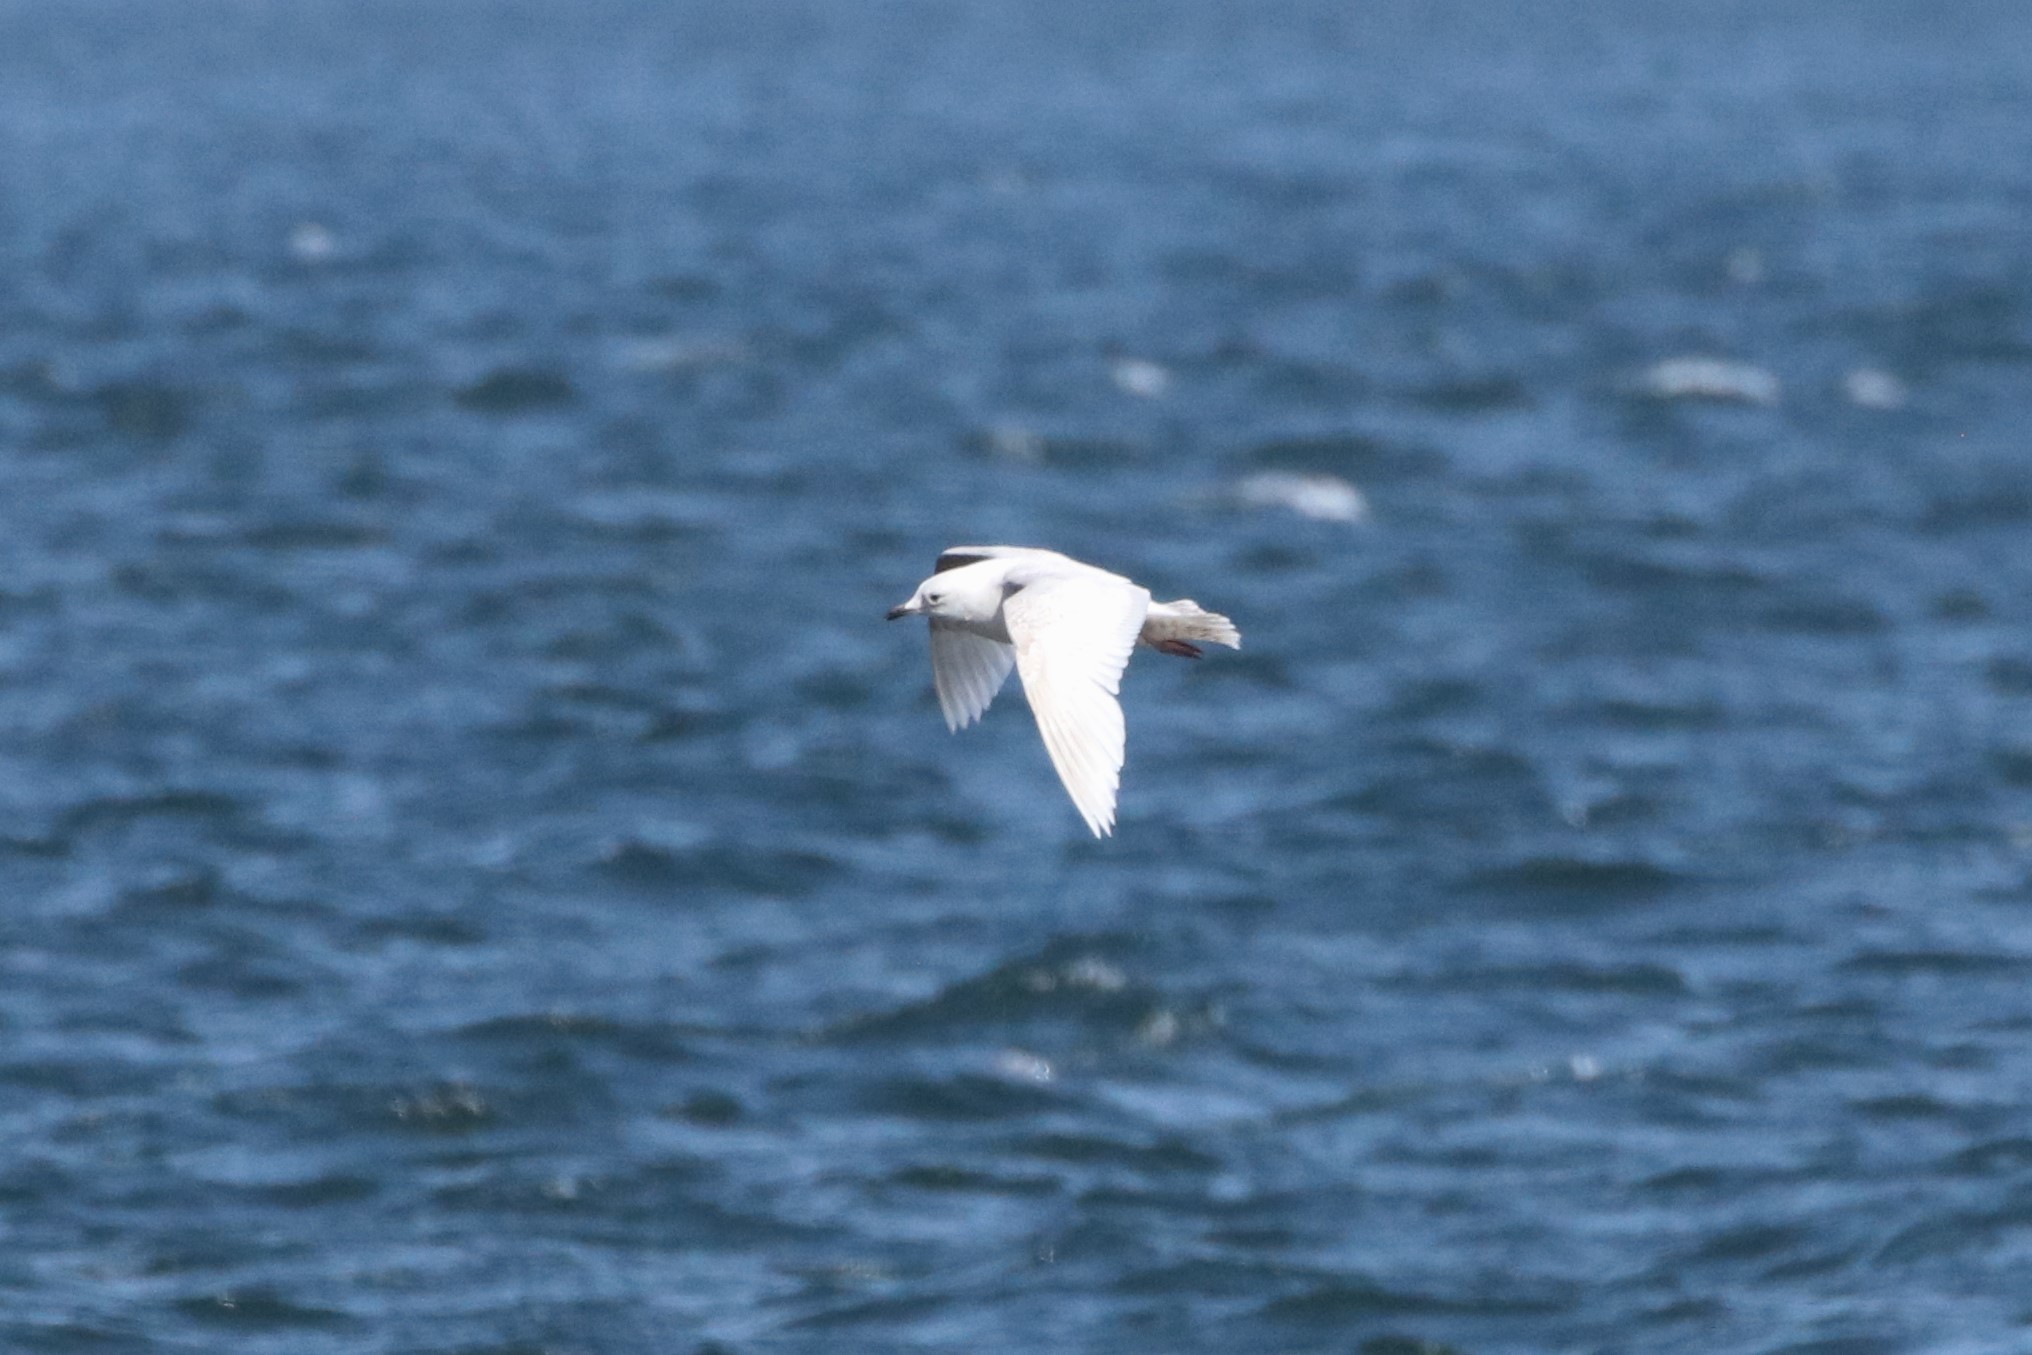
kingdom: Animalia
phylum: Chordata
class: Aves
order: Charadriiformes
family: Laridae
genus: Larus
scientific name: Larus glaucoides
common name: Iceland gull
